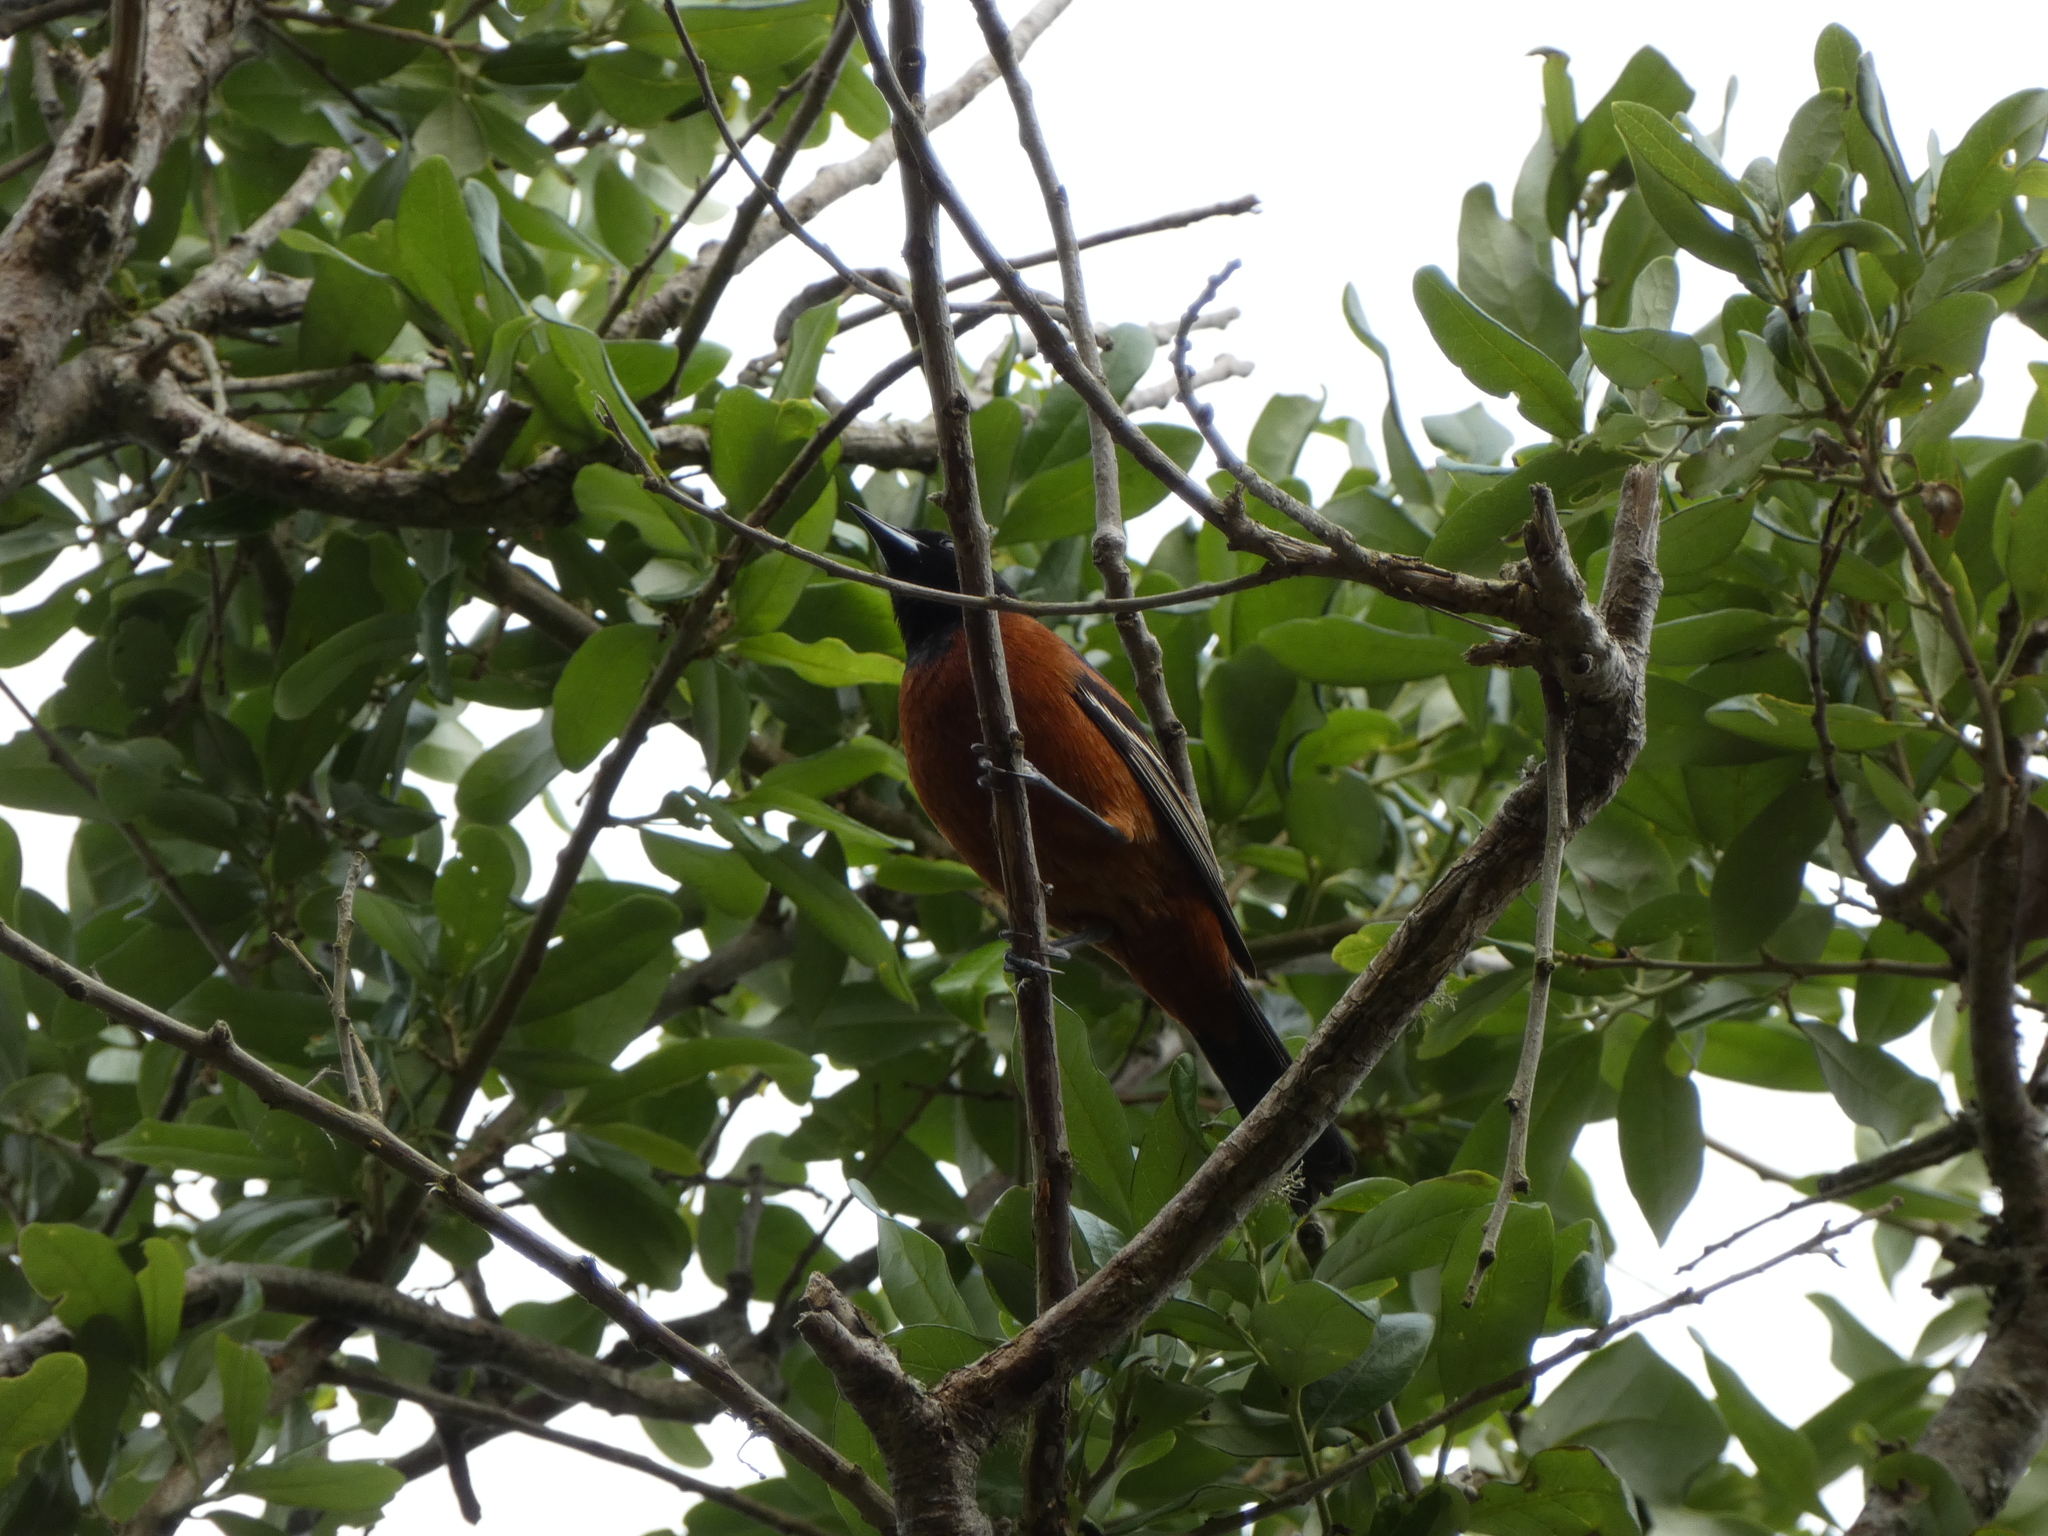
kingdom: Animalia
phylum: Chordata
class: Aves
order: Passeriformes
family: Icteridae
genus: Icterus
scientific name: Icterus spurius
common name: Orchard oriole
